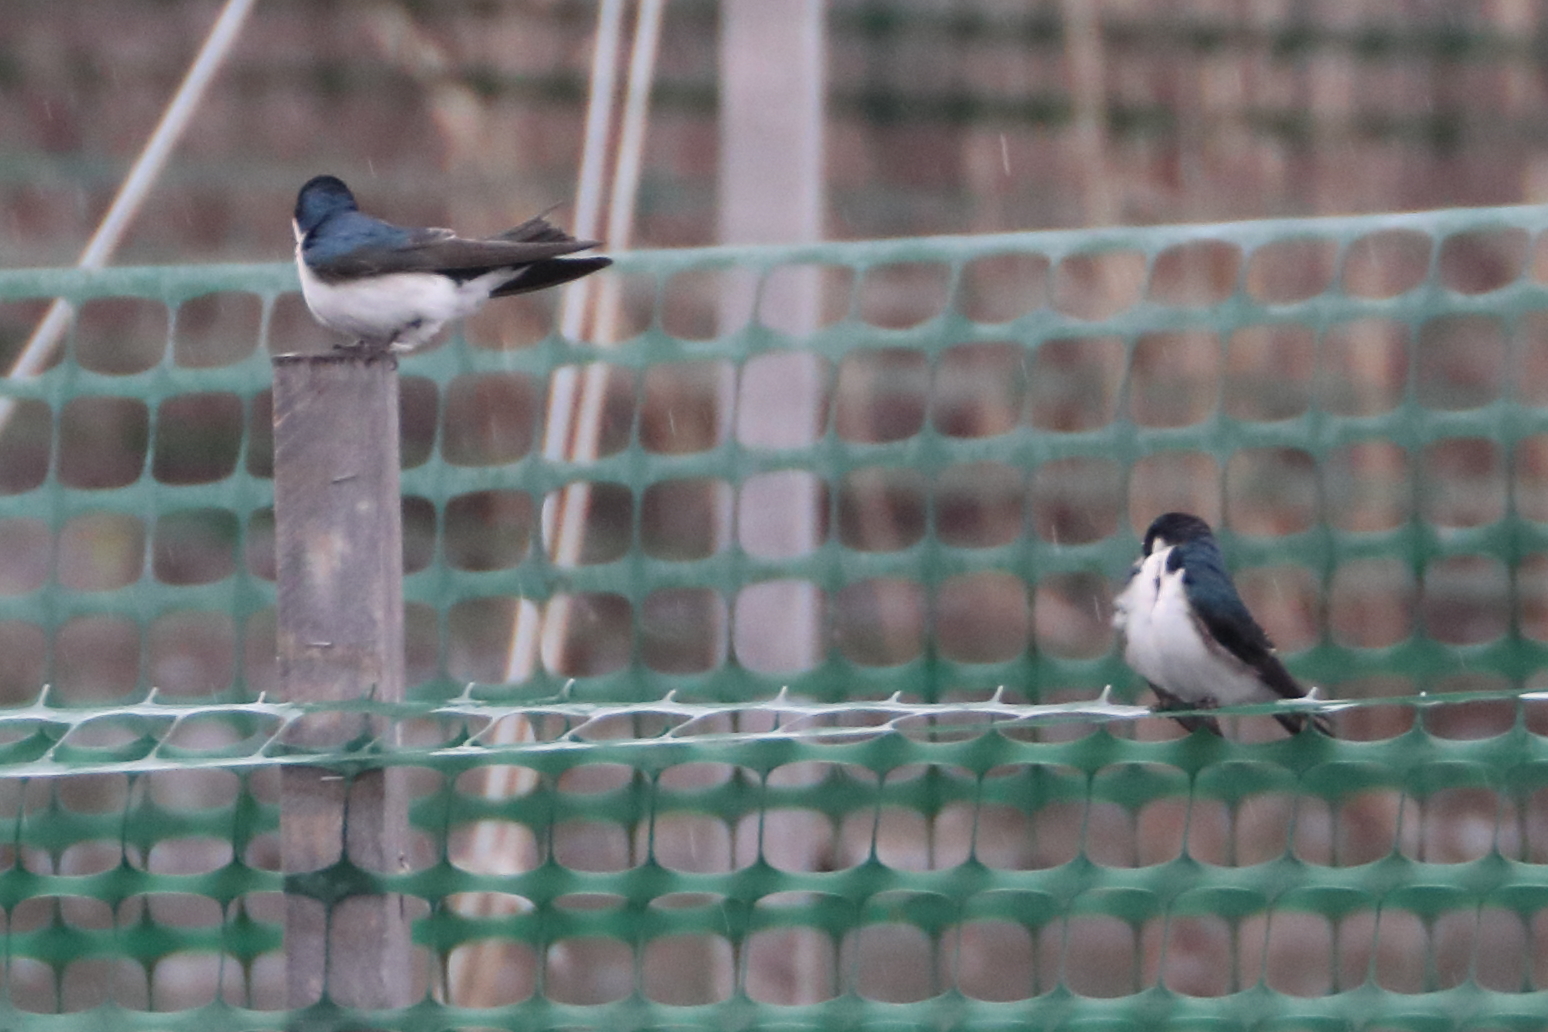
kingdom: Animalia
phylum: Chordata
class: Aves
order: Passeriformes
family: Hirundinidae
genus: Tachycineta
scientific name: Tachycineta bicolor
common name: Tree swallow
